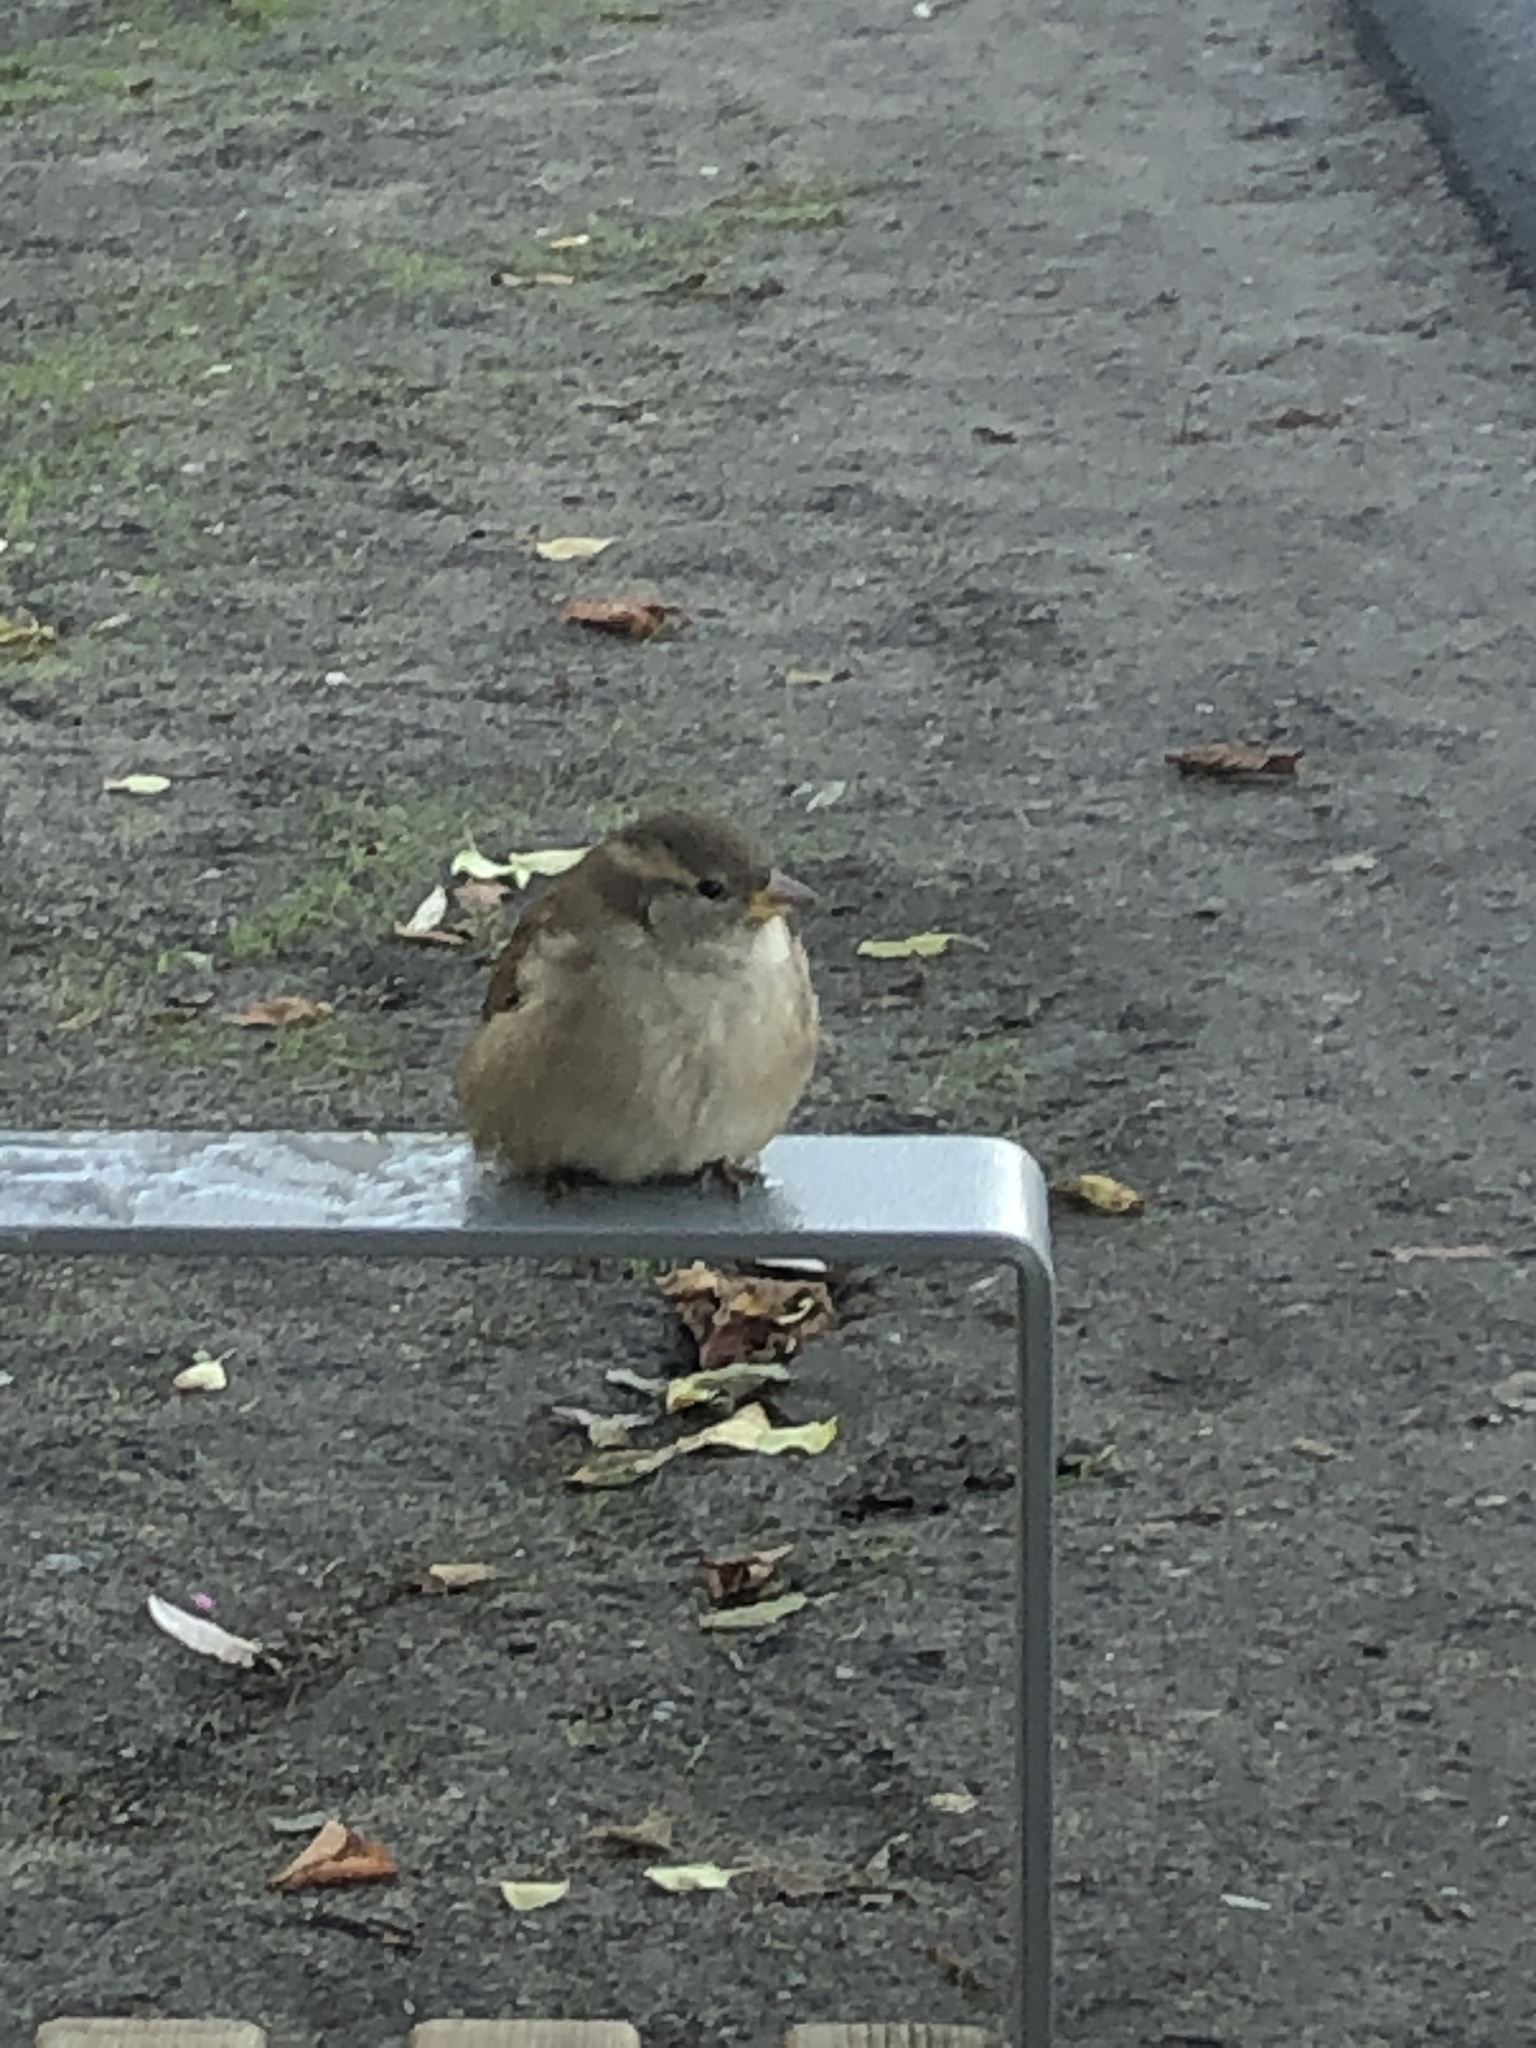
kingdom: Animalia
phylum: Chordata
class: Aves
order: Passeriformes
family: Passeridae
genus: Passer
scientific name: Passer domesticus
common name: House sparrow
